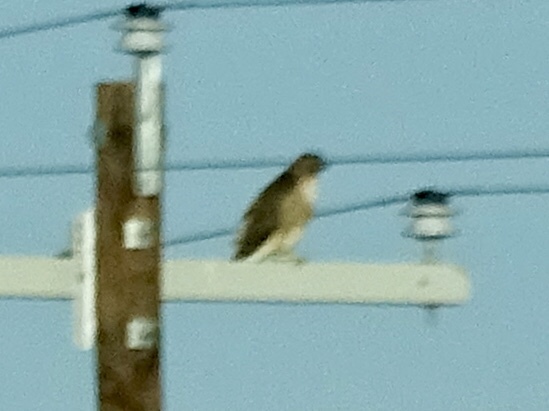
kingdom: Animalia
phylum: Chordata
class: Aves
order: Accipitriformes
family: Accipitridae
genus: Buteo
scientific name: Buteo jamaicensis
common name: Red-tailed hawk
